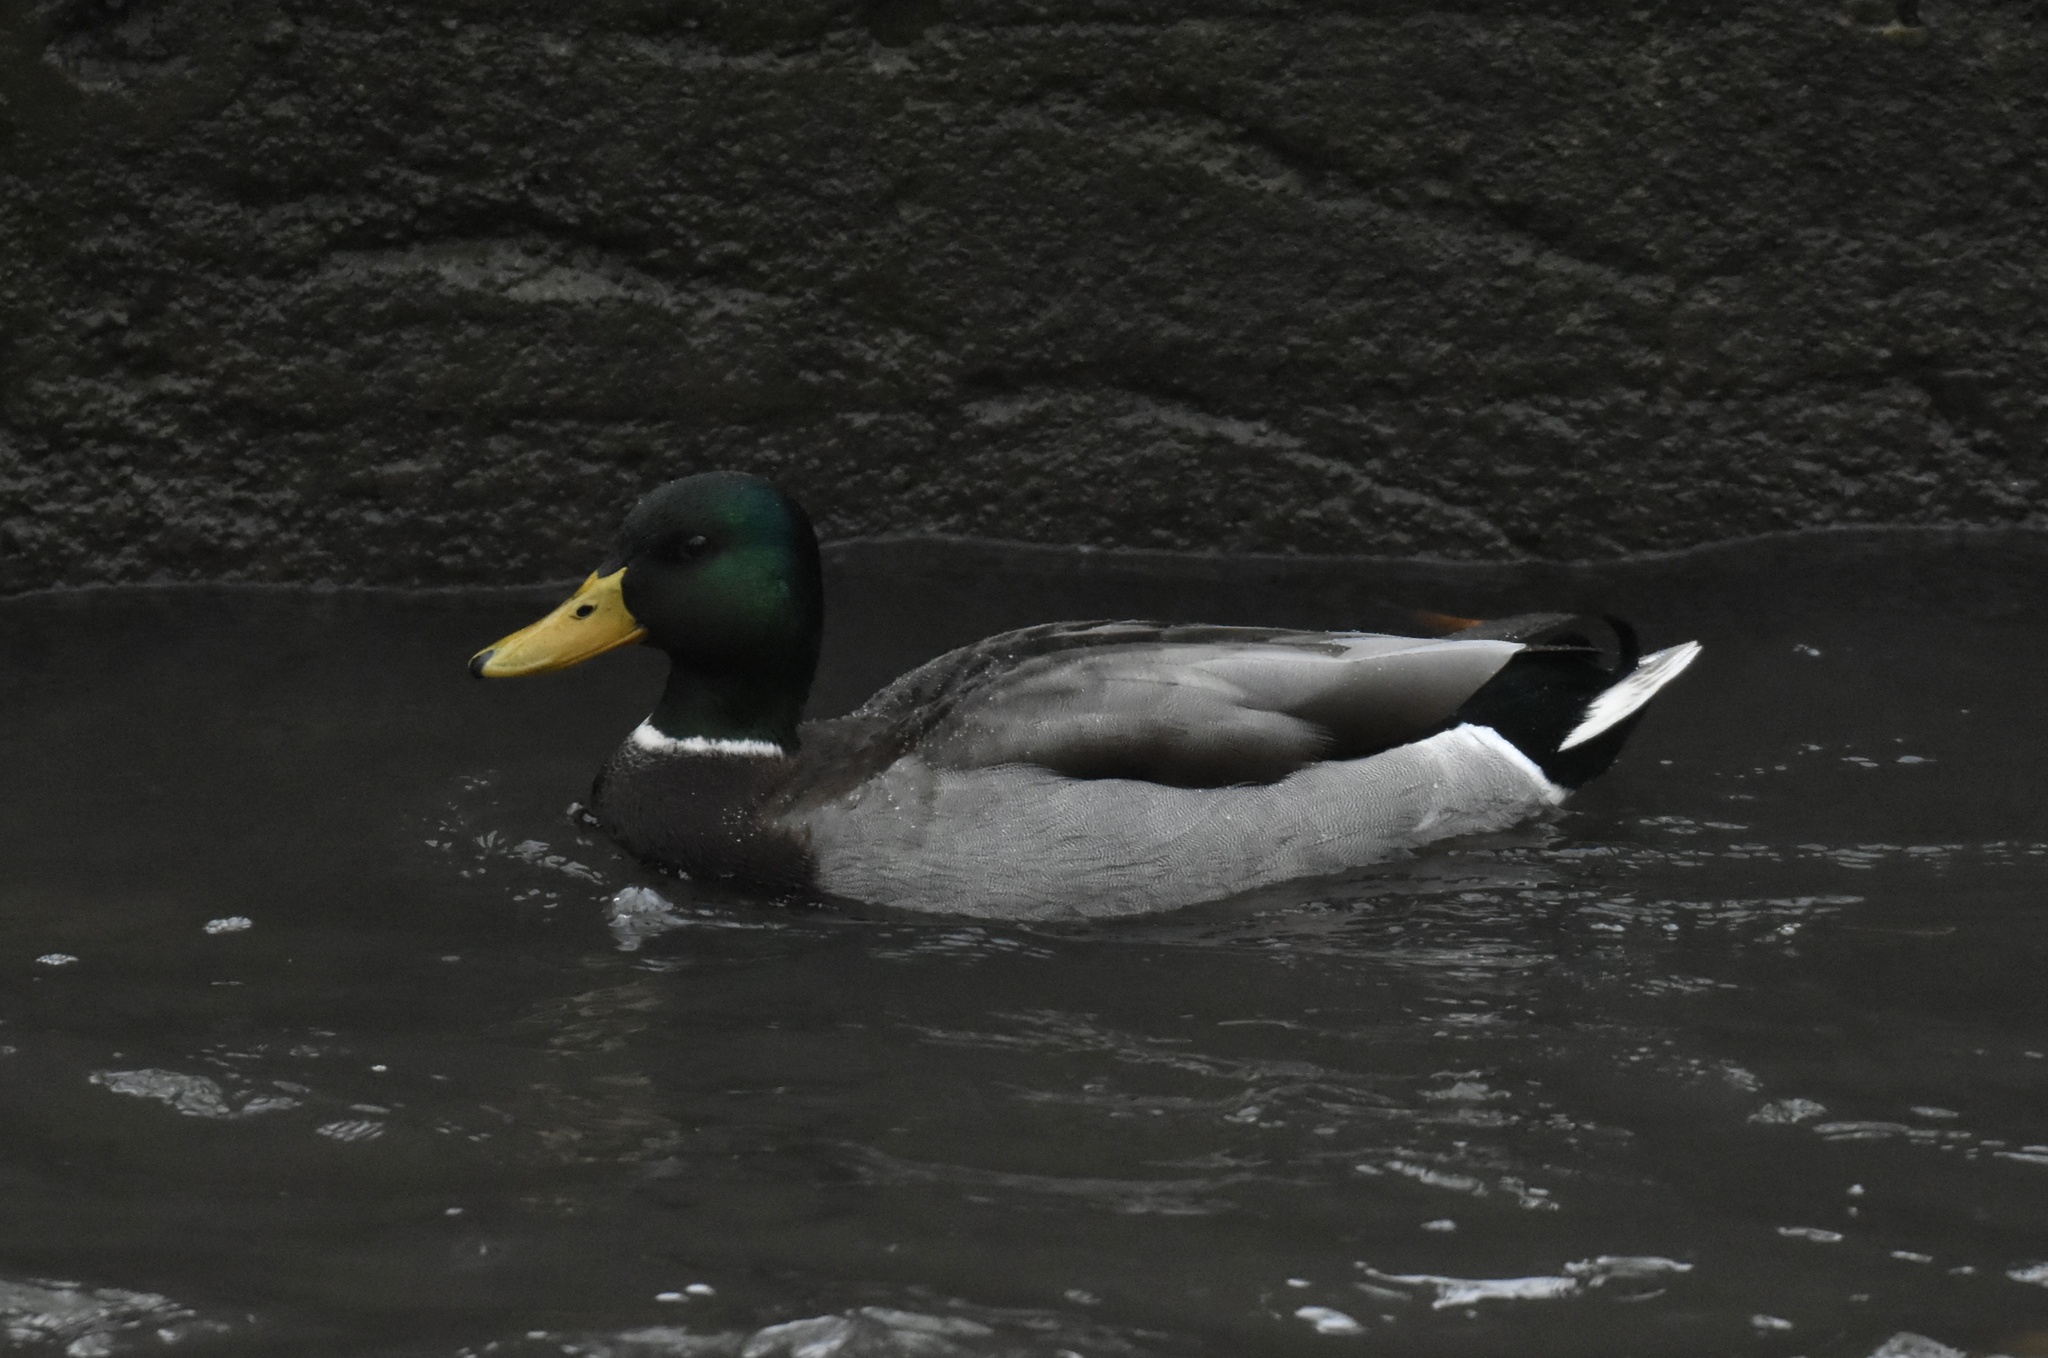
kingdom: Animalia
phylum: Chordata
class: Aves
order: Anseriformes
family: Anatidae
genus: Anas
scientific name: Anas platyrhynchos
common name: Mallard
